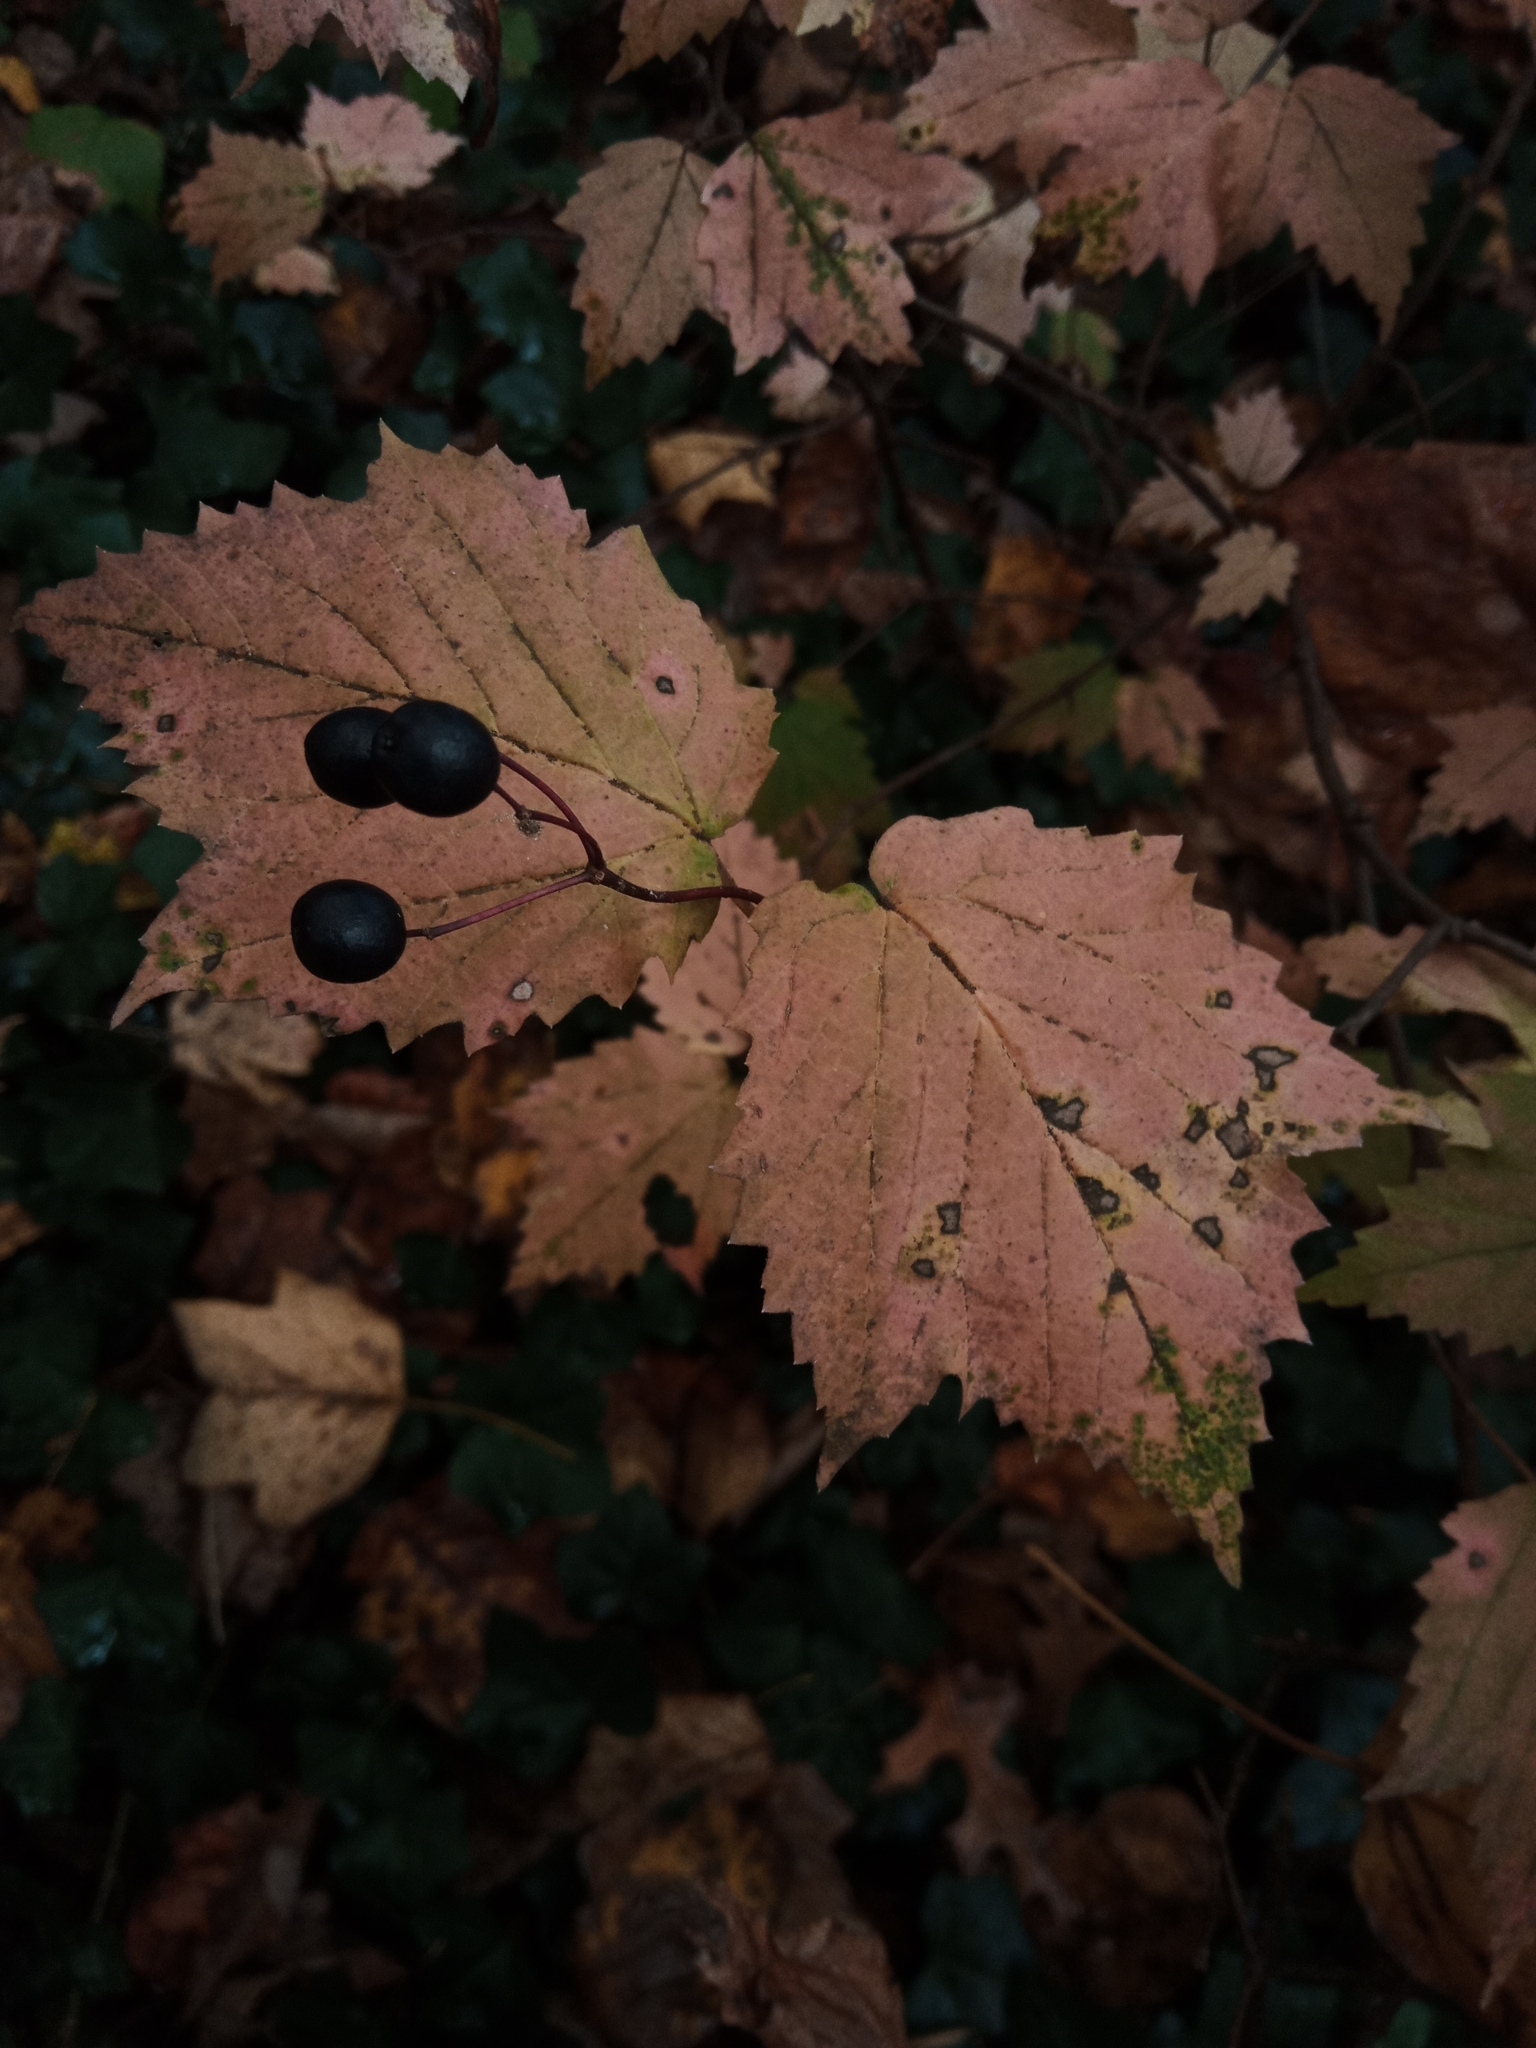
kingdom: Plantae
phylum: Tracheophyta
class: Magnoliopsida
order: Dipsacales
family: Viburnaceae
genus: Viburnum
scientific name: Viburnum acerifolium
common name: Dockmackie
